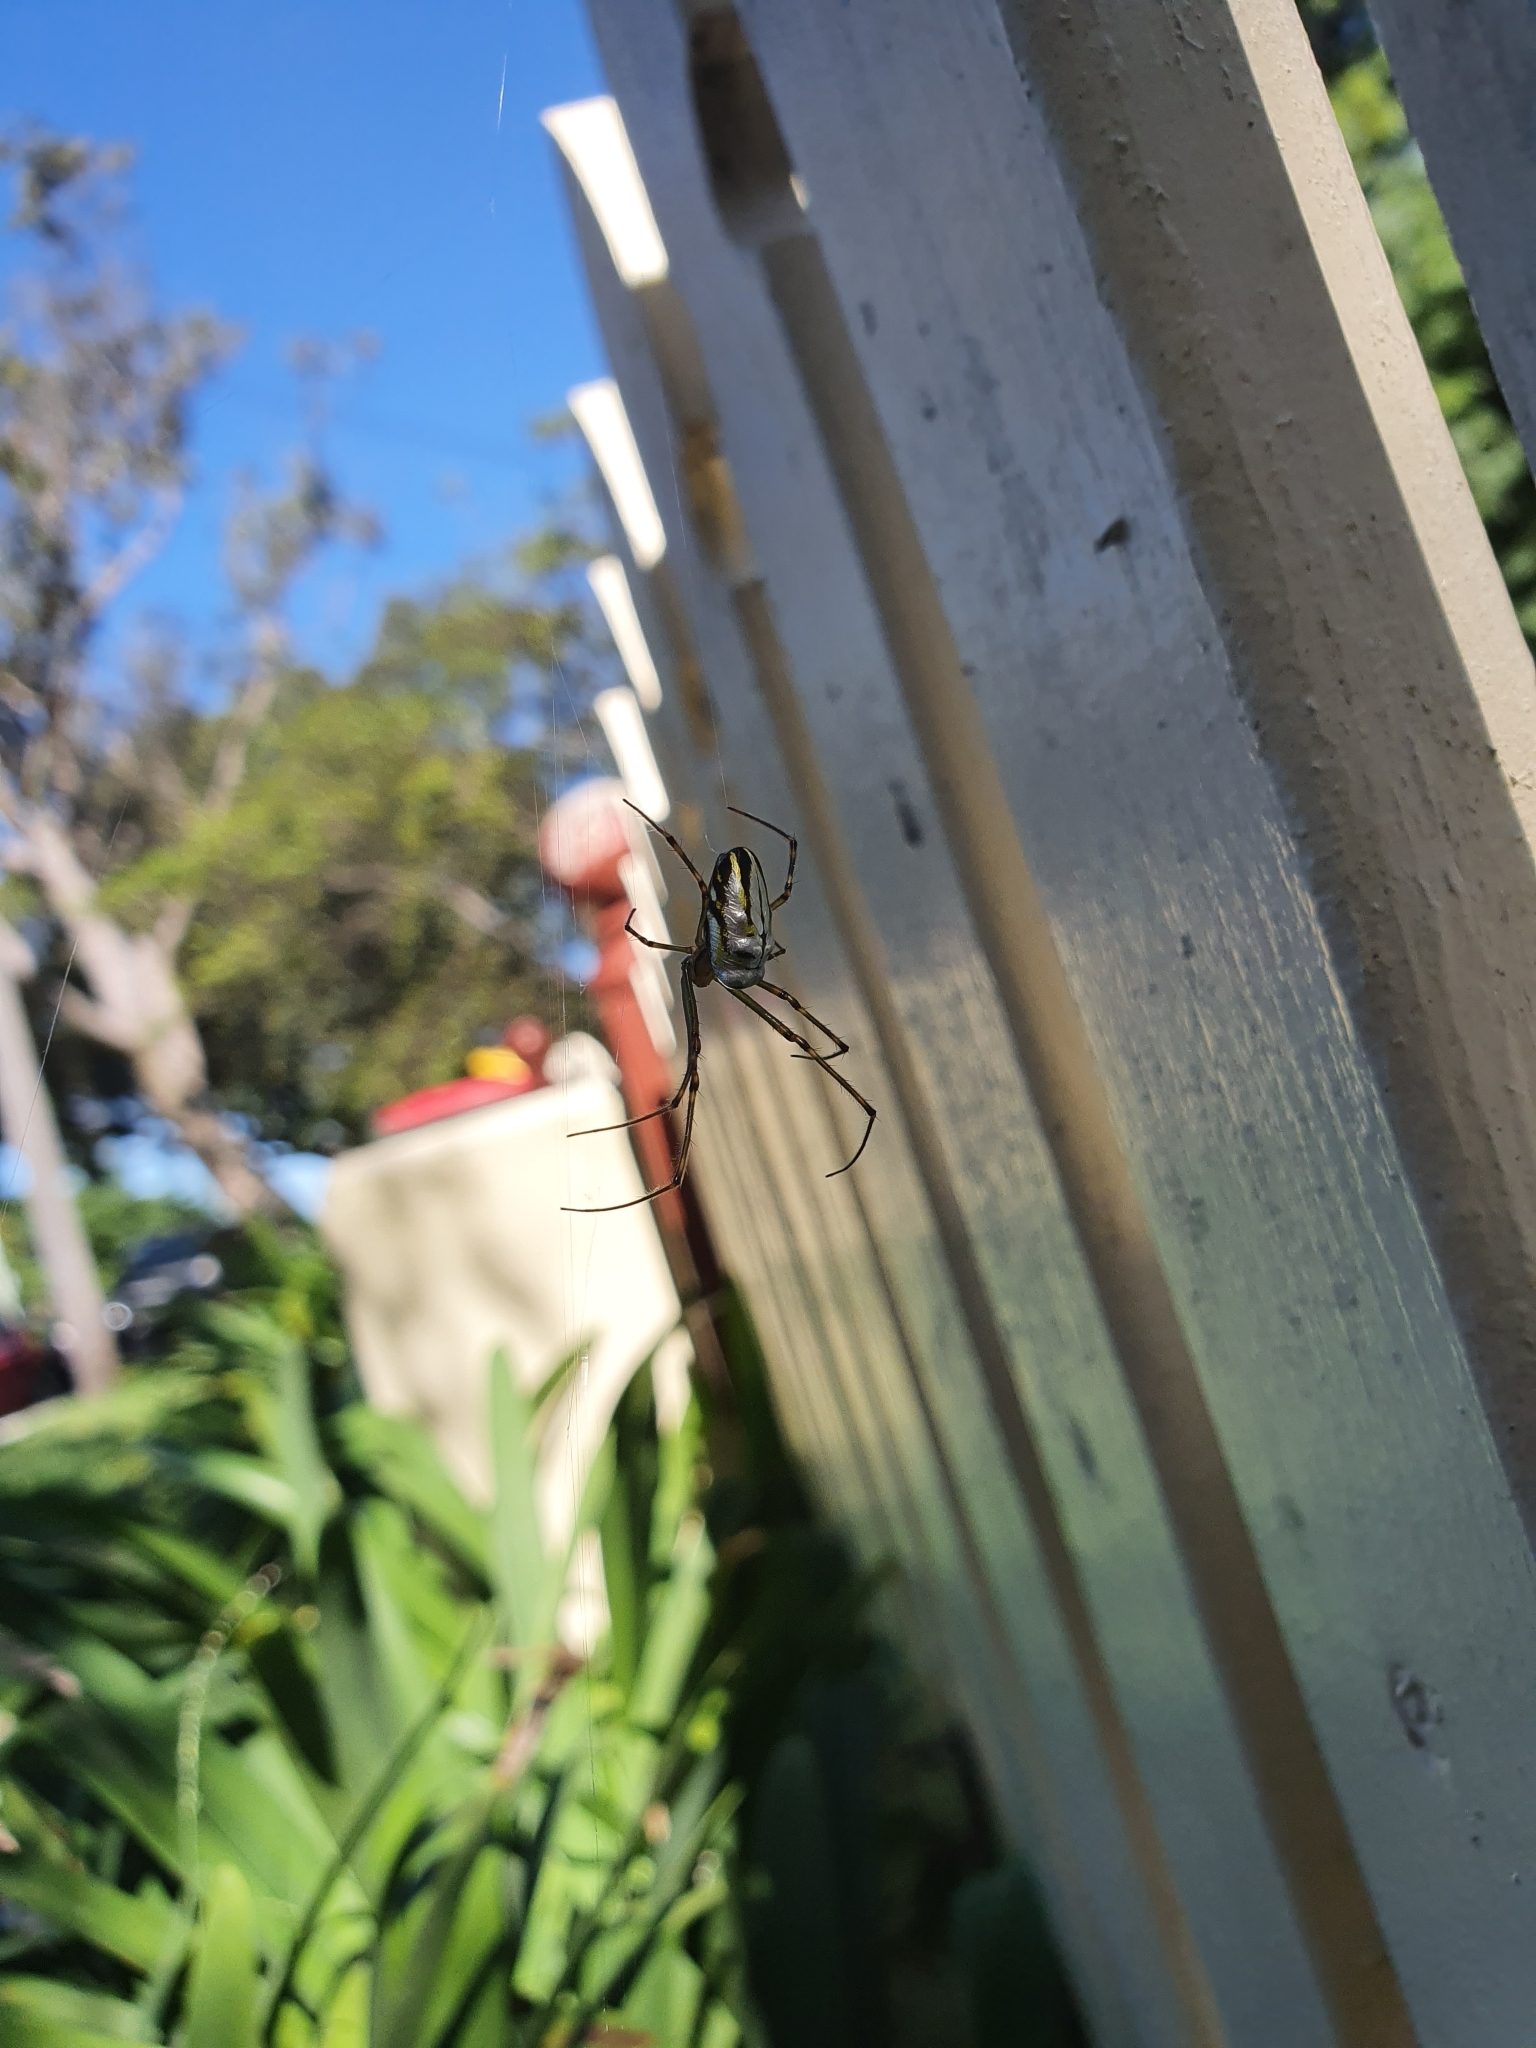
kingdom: Animalia
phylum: Arthropoda
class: Arachnida
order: Araneae
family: Tetragnathidae
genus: Leucauge
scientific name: Leucauge dromedaria
